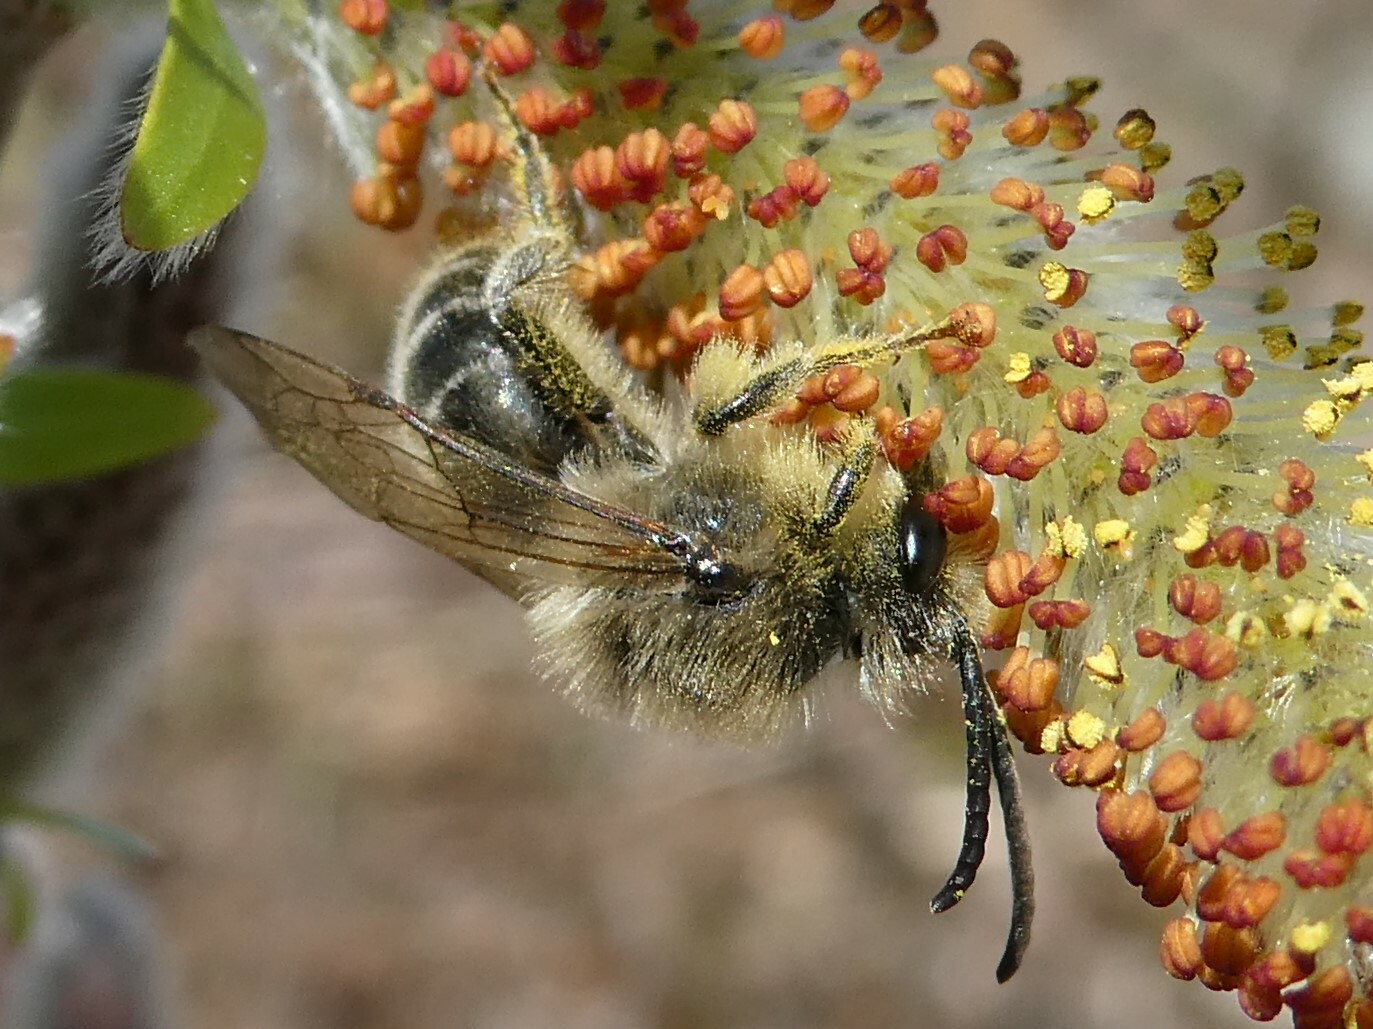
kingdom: Animalia
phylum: Arthropoda
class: Insecta
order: Hymenoptera
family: Colletidae
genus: Colletes
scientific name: Colletes inaequalis
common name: Unequal cellophane bee
